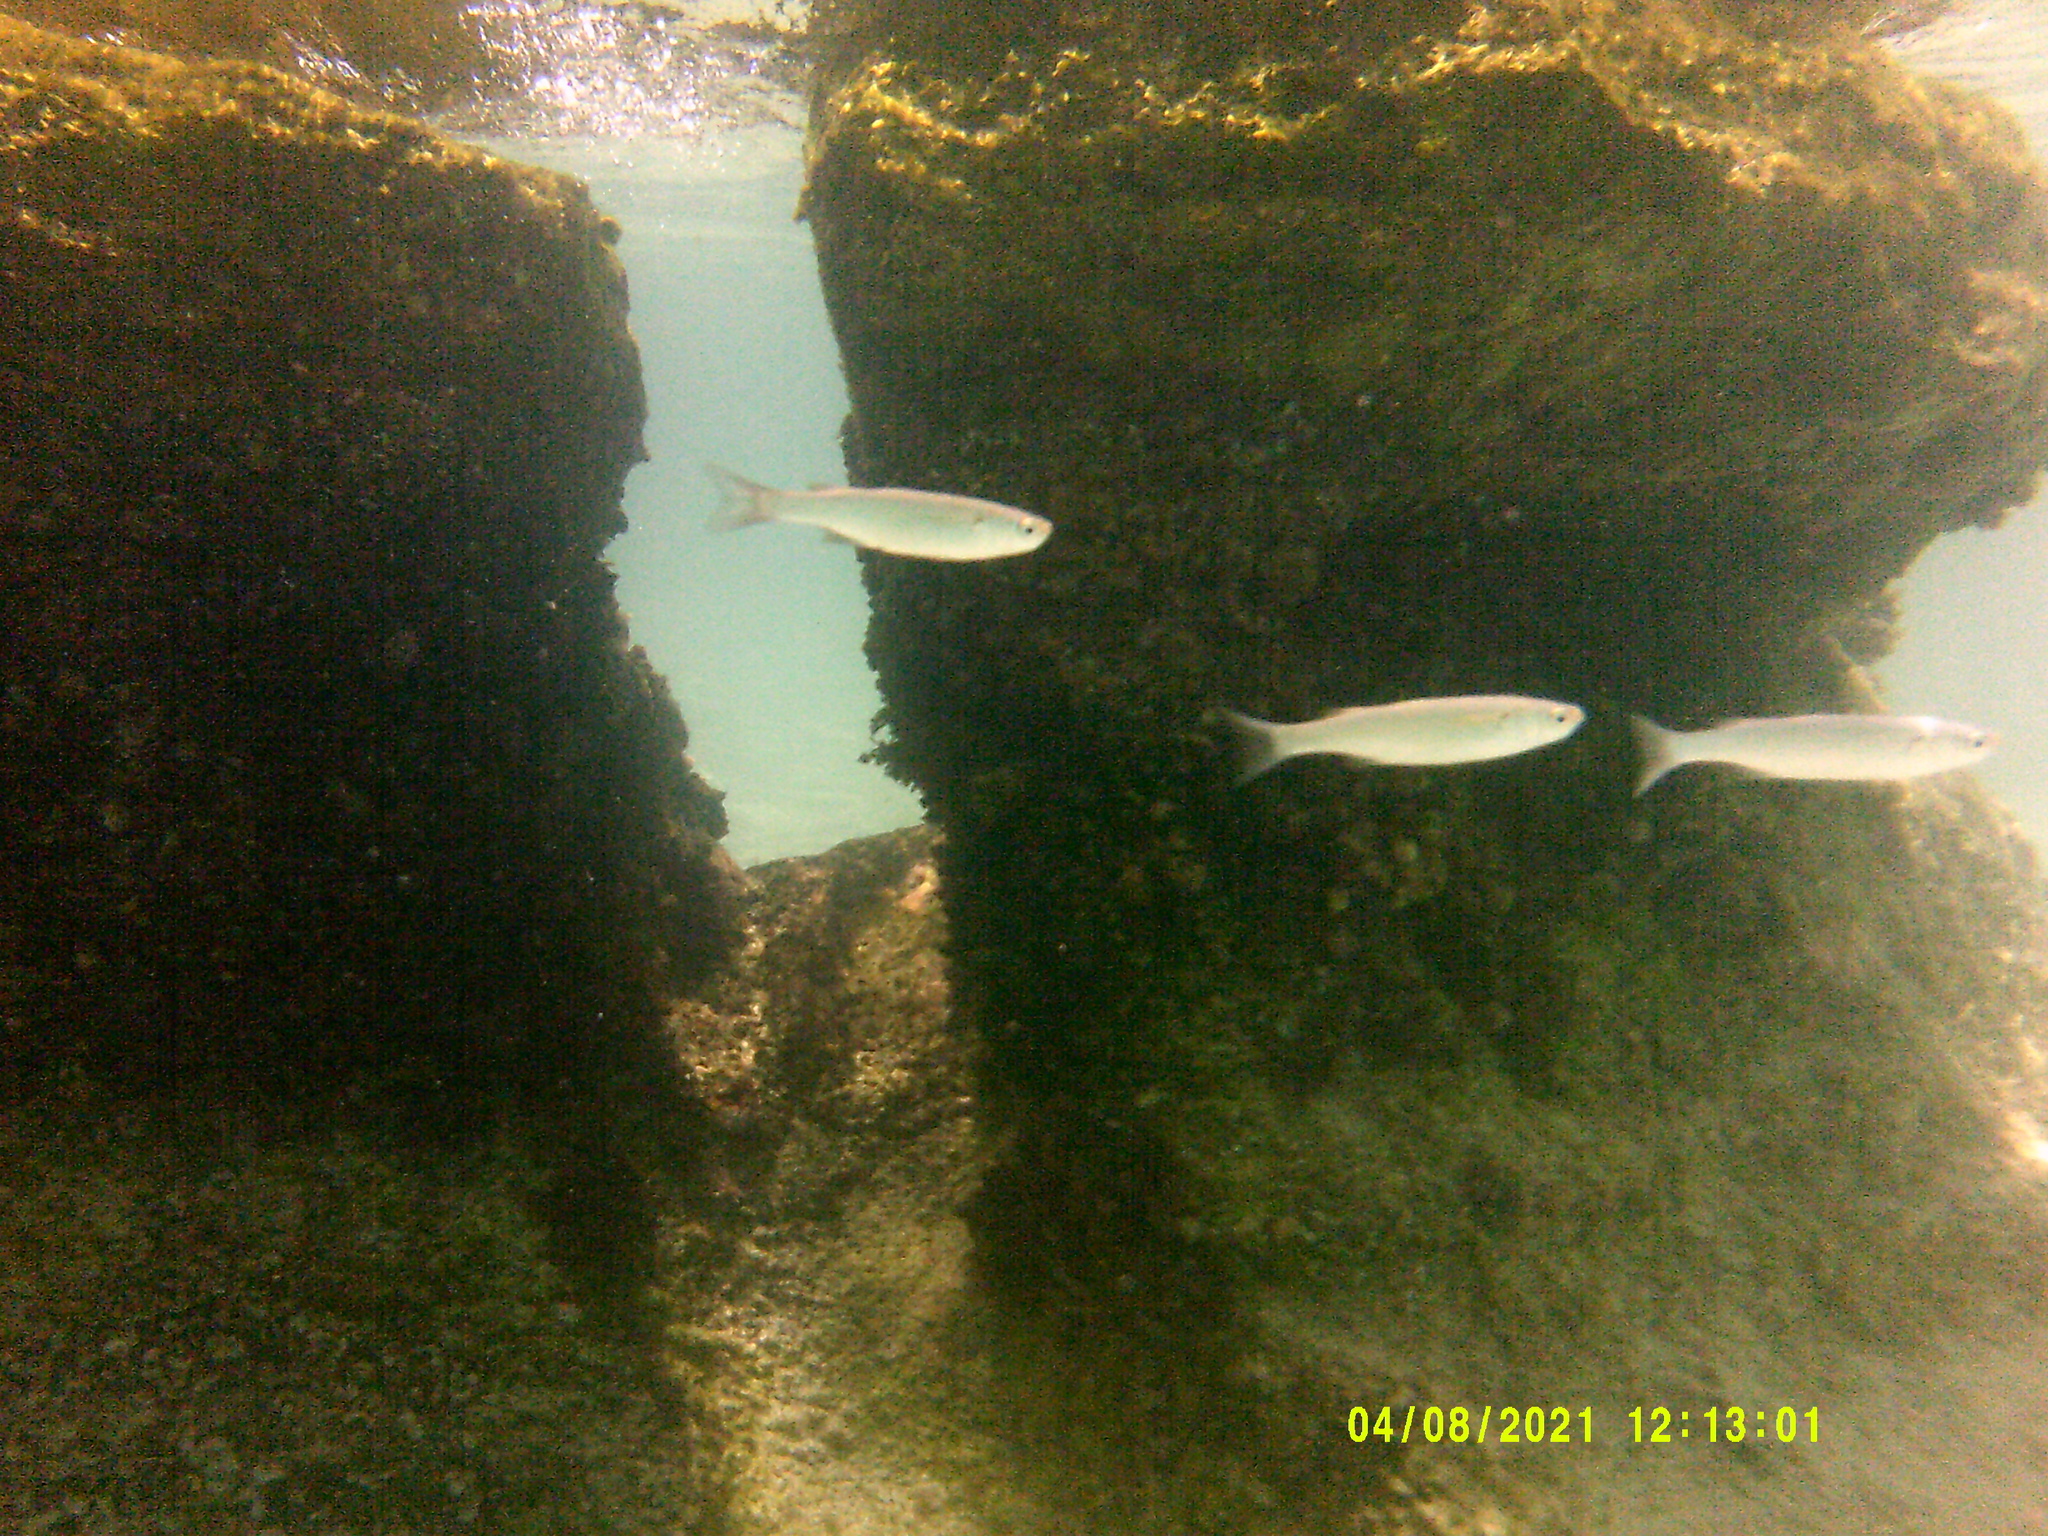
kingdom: Animalia
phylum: Chordata
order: Mugiliformes
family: Mugilidae
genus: Oedalechilus
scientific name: Oedalechilus labeo
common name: Boxlip mullet
